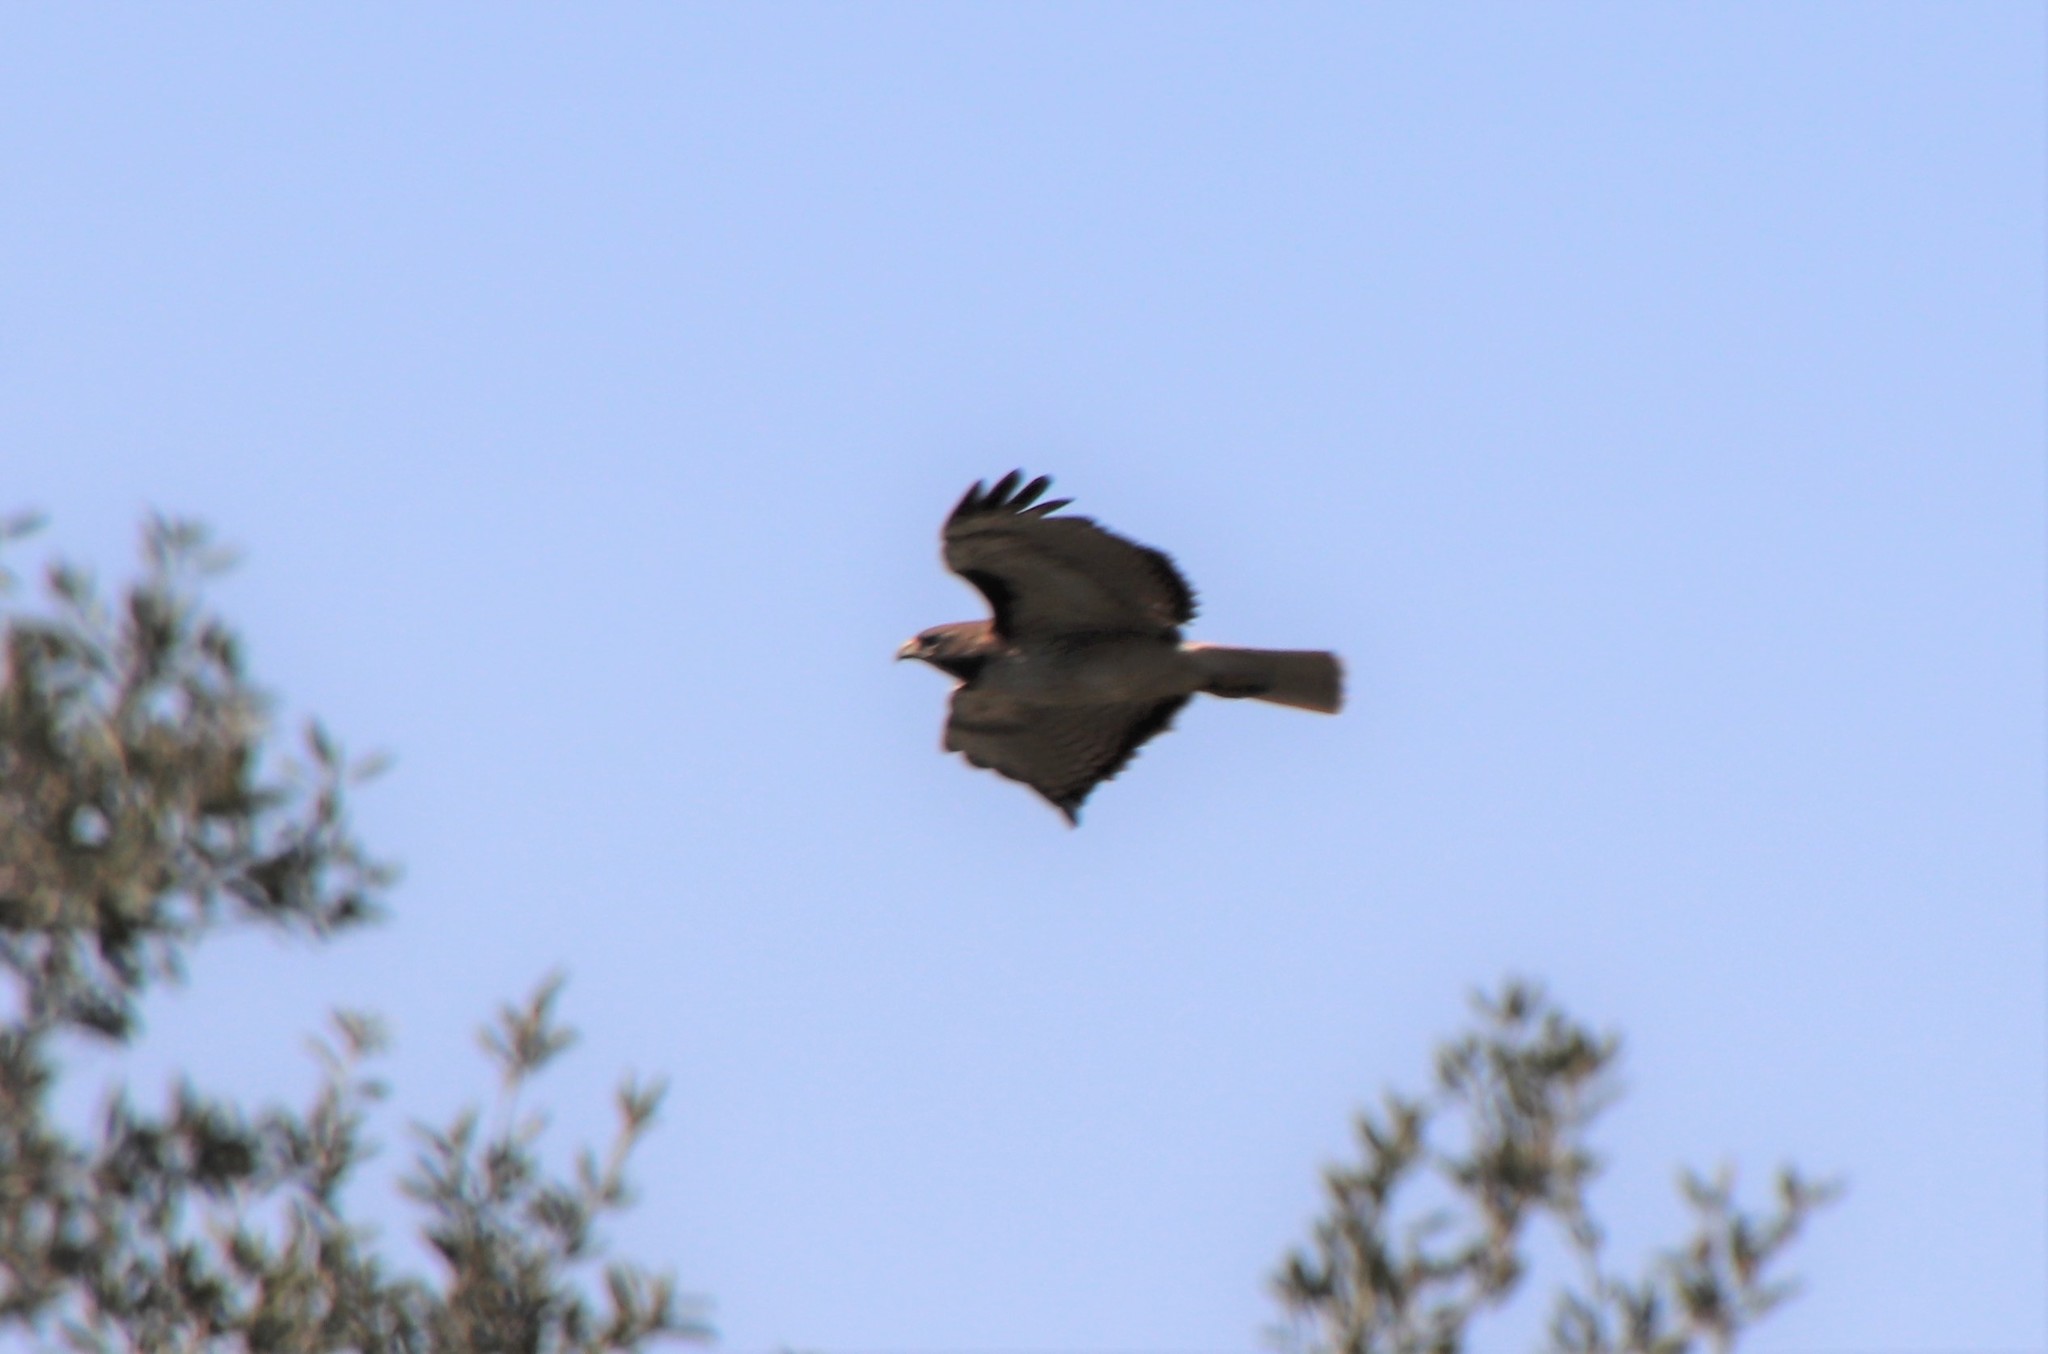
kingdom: Animalia
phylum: Chordata
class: Aves
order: Accipitriformes
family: Accipitridae
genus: Buteo
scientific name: Buteo jamaicensis
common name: Red-tailed hawk
